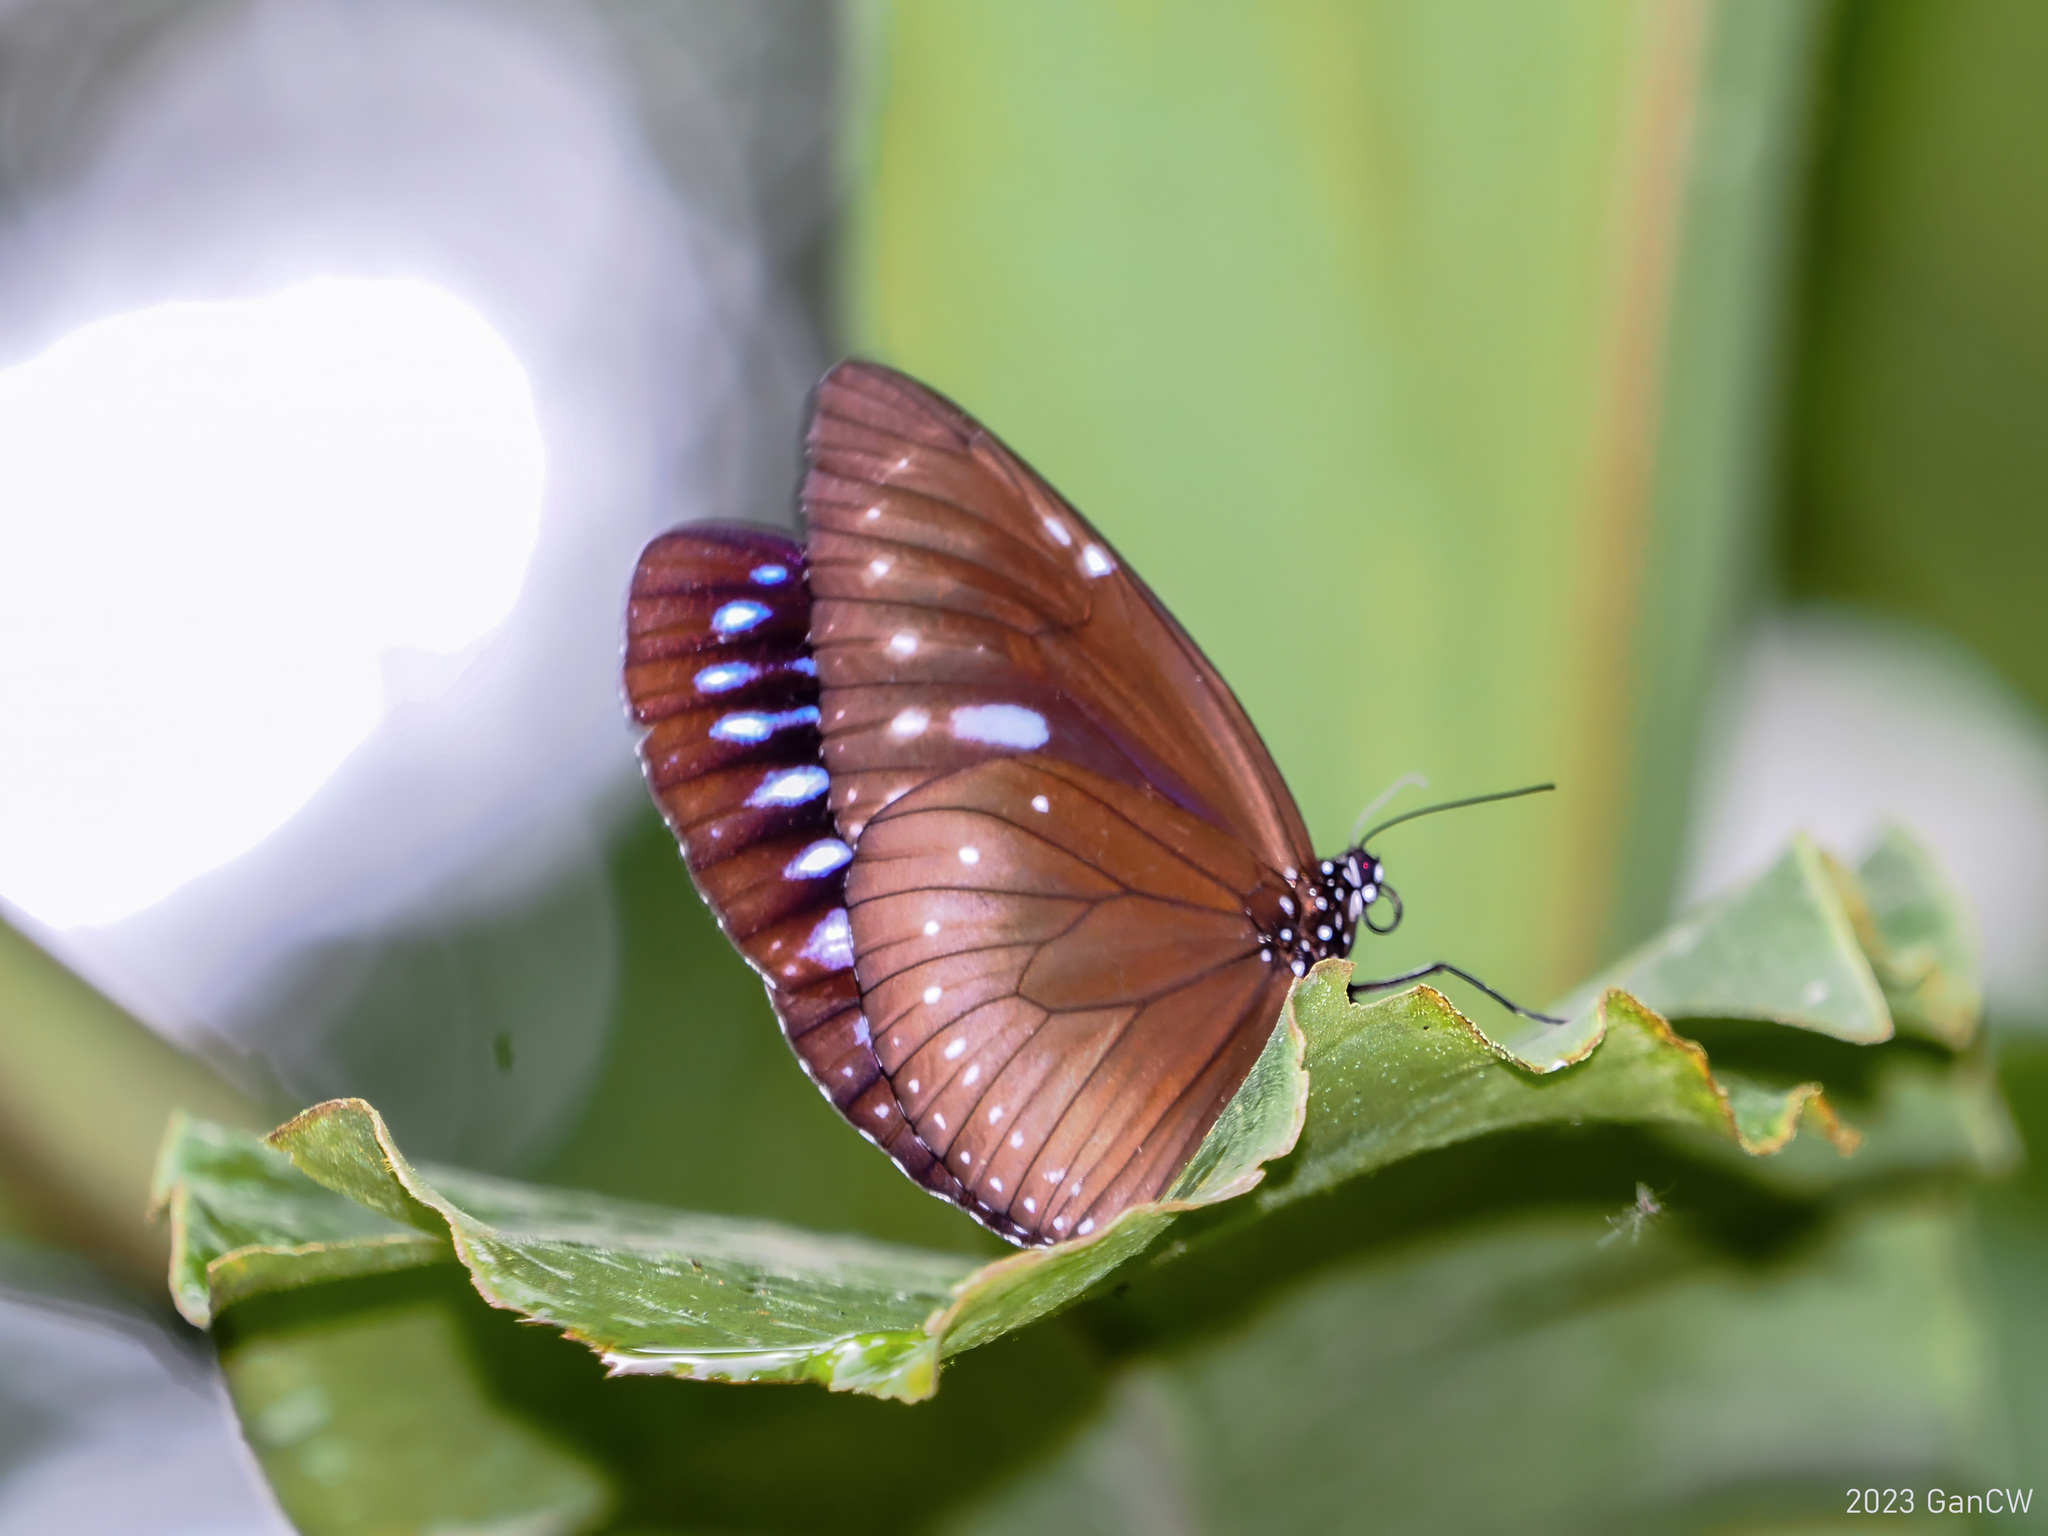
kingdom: Animalia
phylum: Arthropoda
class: Insecta
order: Lepidoptera
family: Nymphalidae
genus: Euploea
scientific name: Euploea westwoodii
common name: Westwood's king crow
